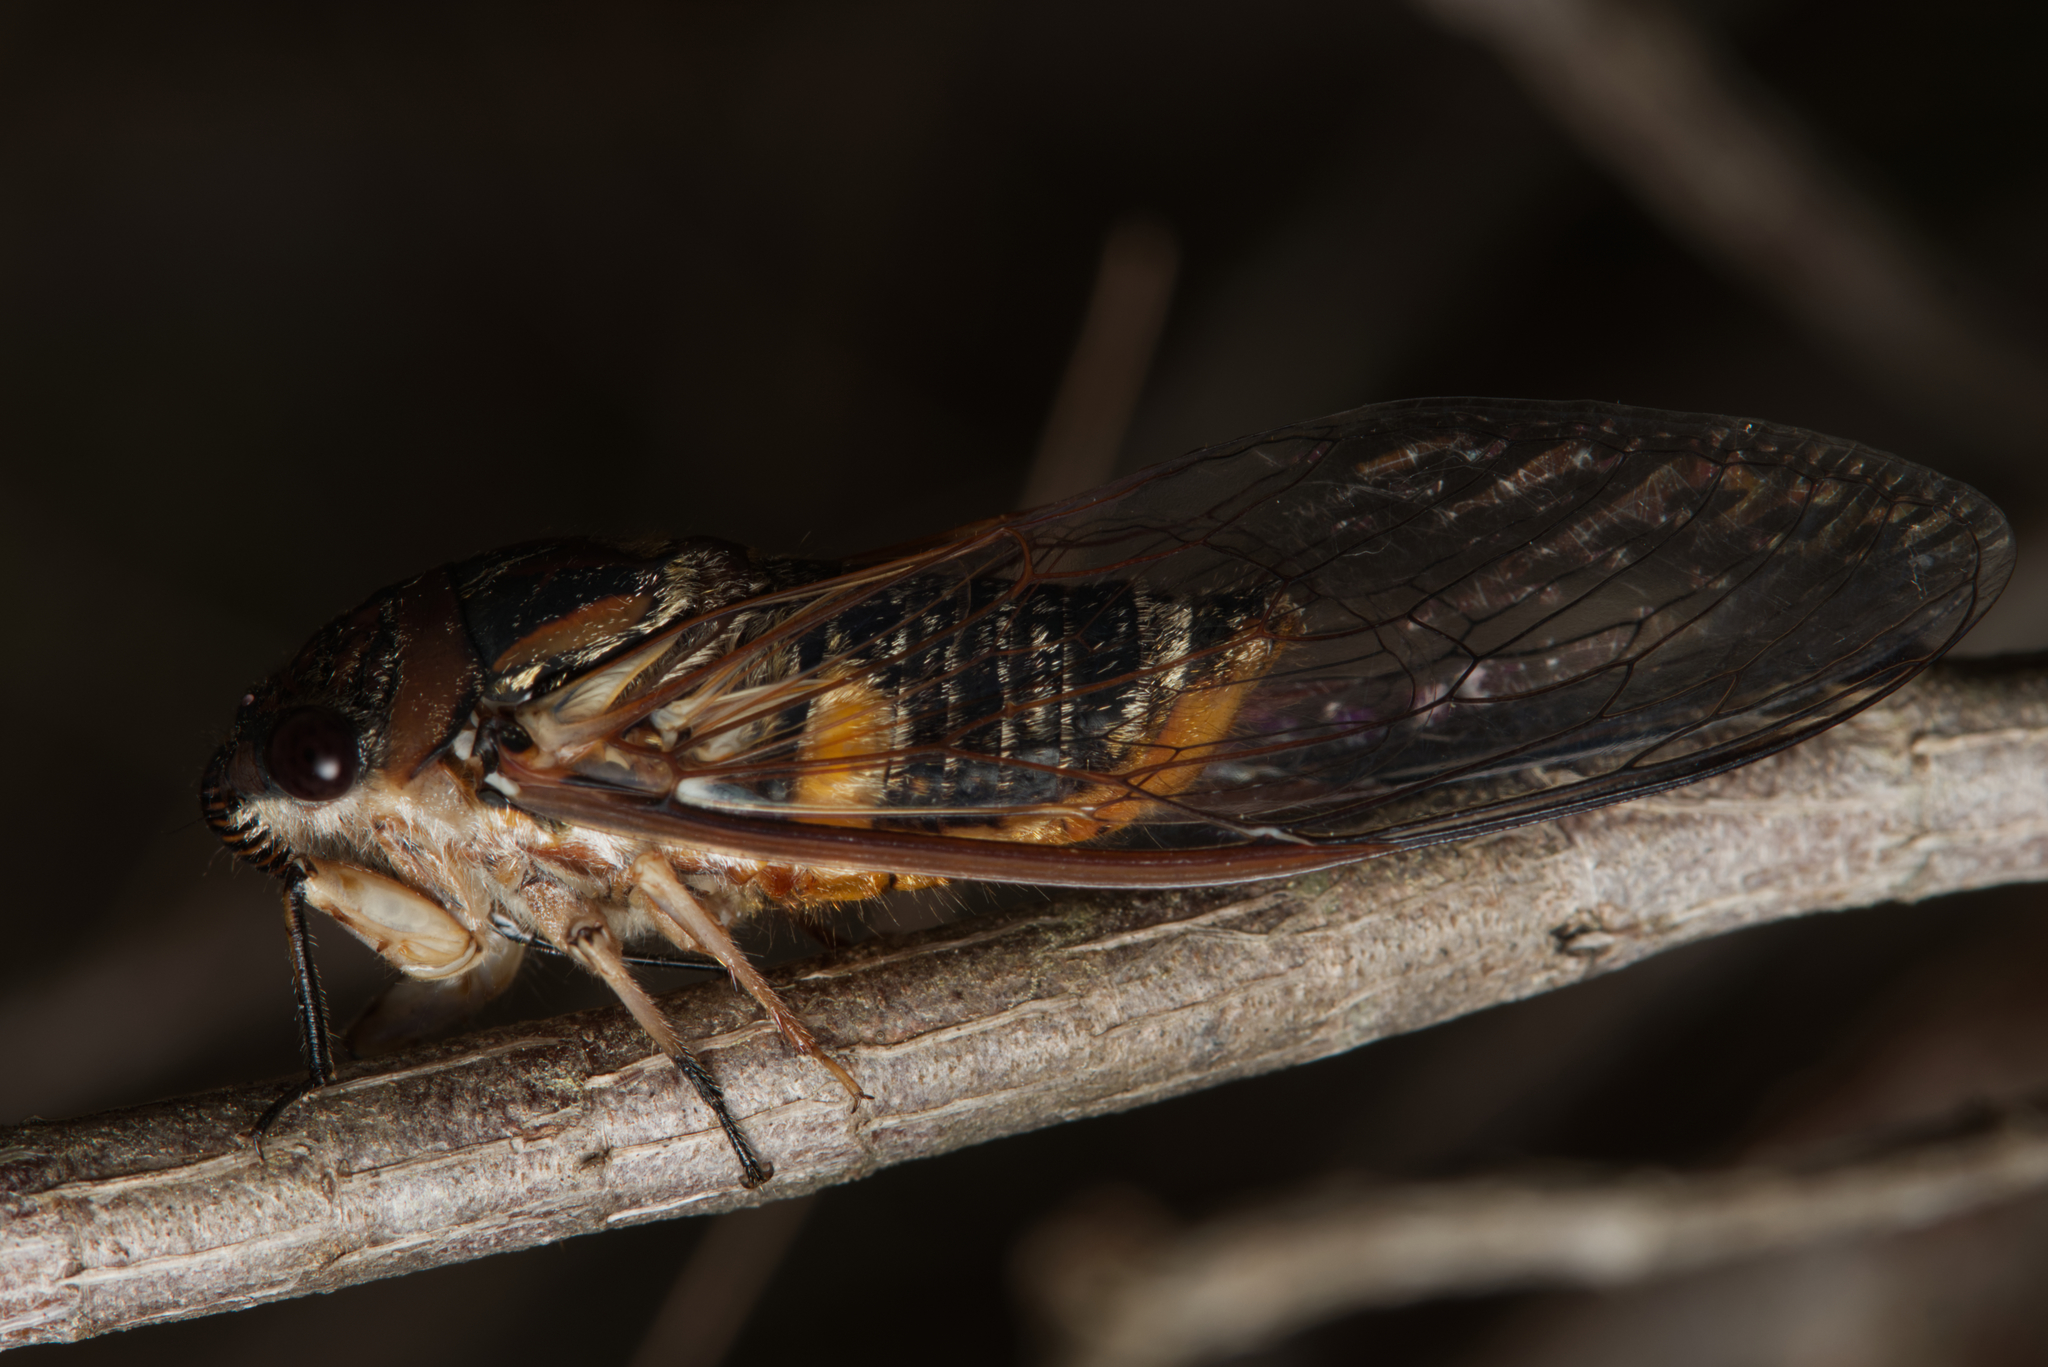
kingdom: Animalia
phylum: Arthropoda
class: Insecta
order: Hemiptera
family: Cicadidae
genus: Psaltoda
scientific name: Psaltoda harrisii
